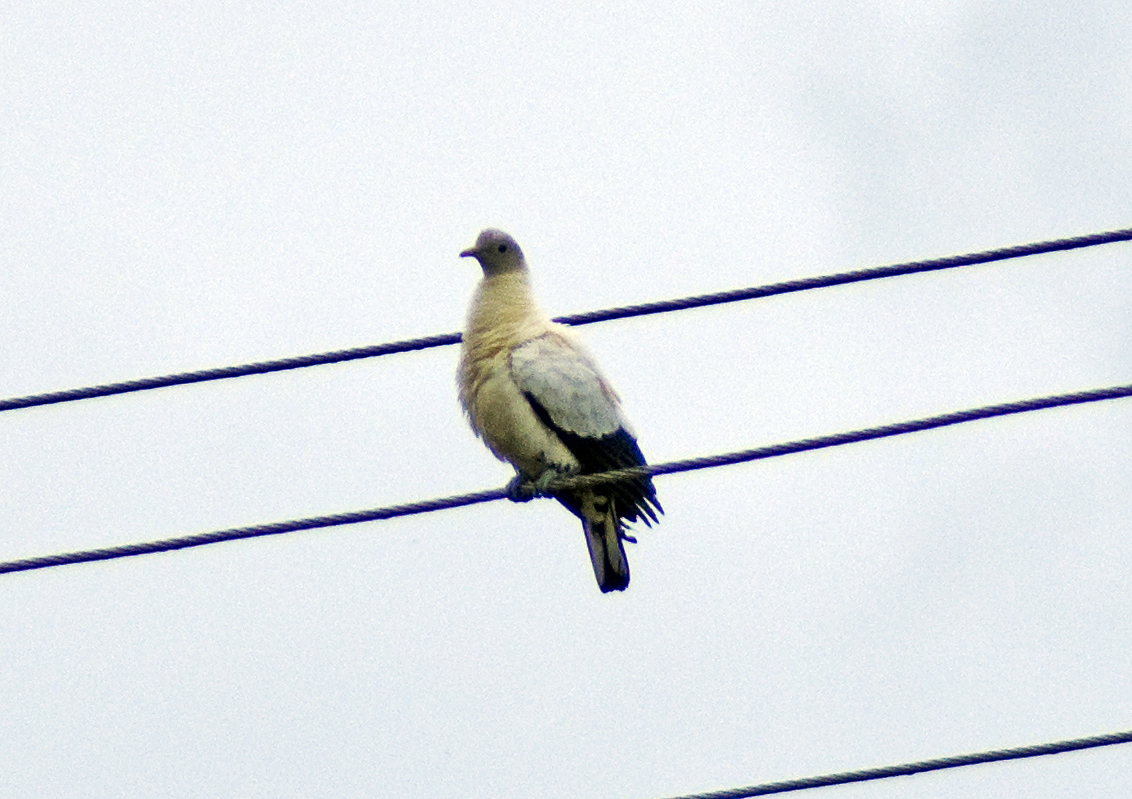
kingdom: Animalia
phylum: Chordata
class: Aves
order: Columbiformes
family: Columbidae
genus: Ducula
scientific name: Ducula spilorrhoa
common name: Torresian imperial pigeon
